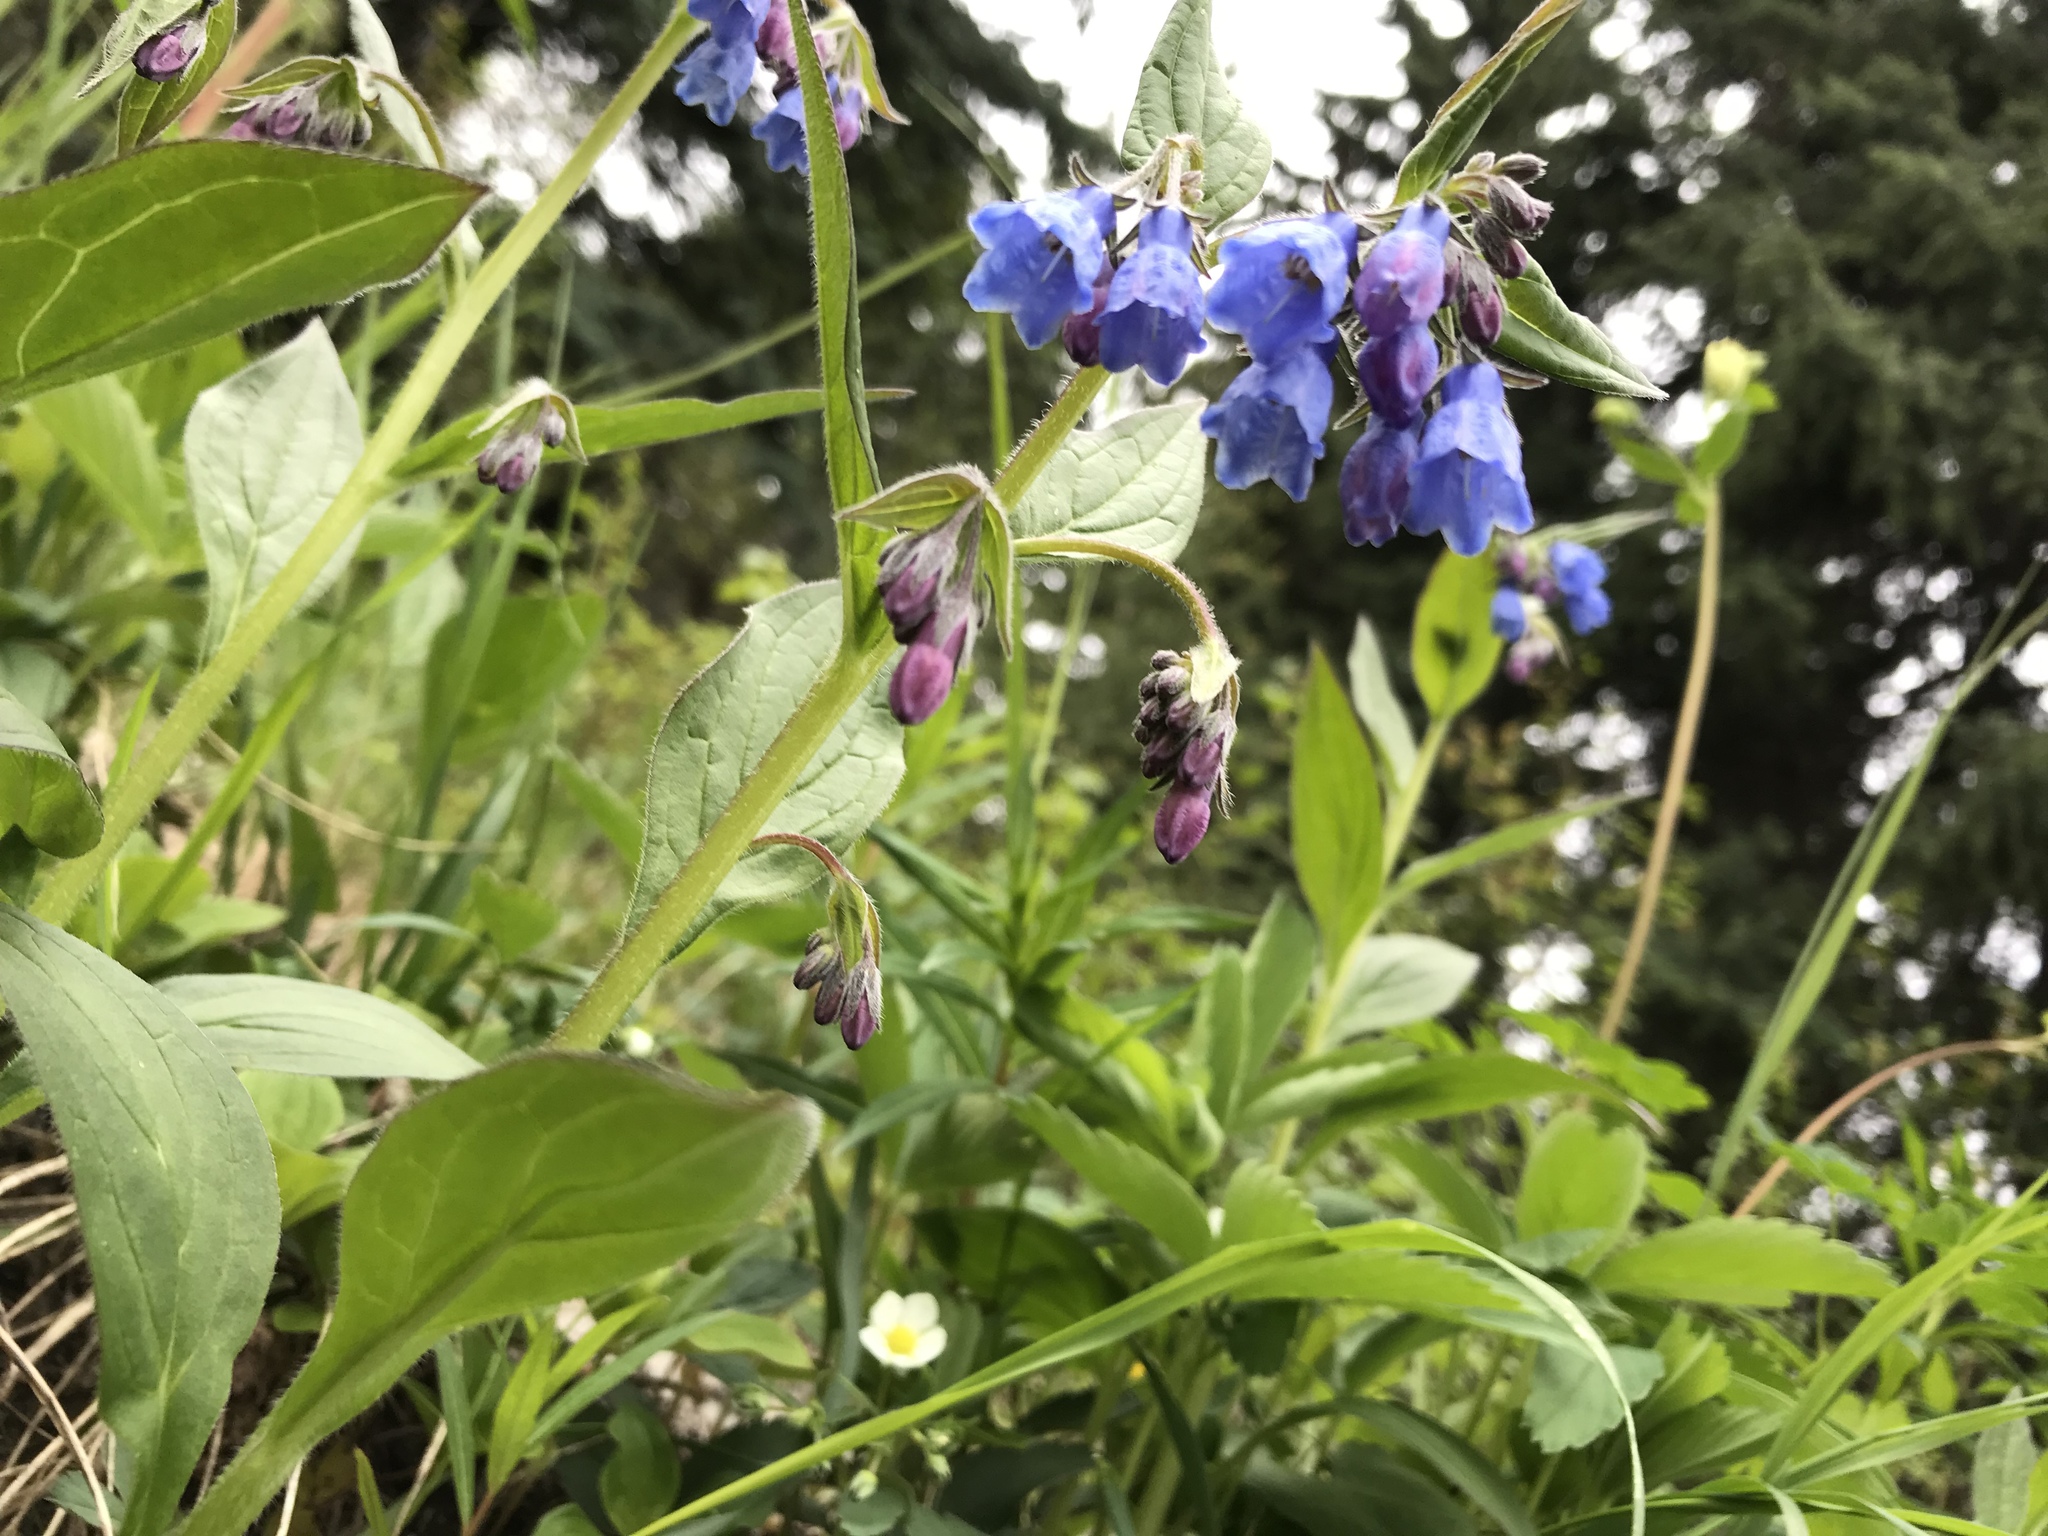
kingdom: Plantae
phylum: Tracheophyta
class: Magnoliopsida
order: Boraginales
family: Boraginaceae
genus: Mertensia
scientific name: Mertensia paniculata
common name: Panicled bluebells
